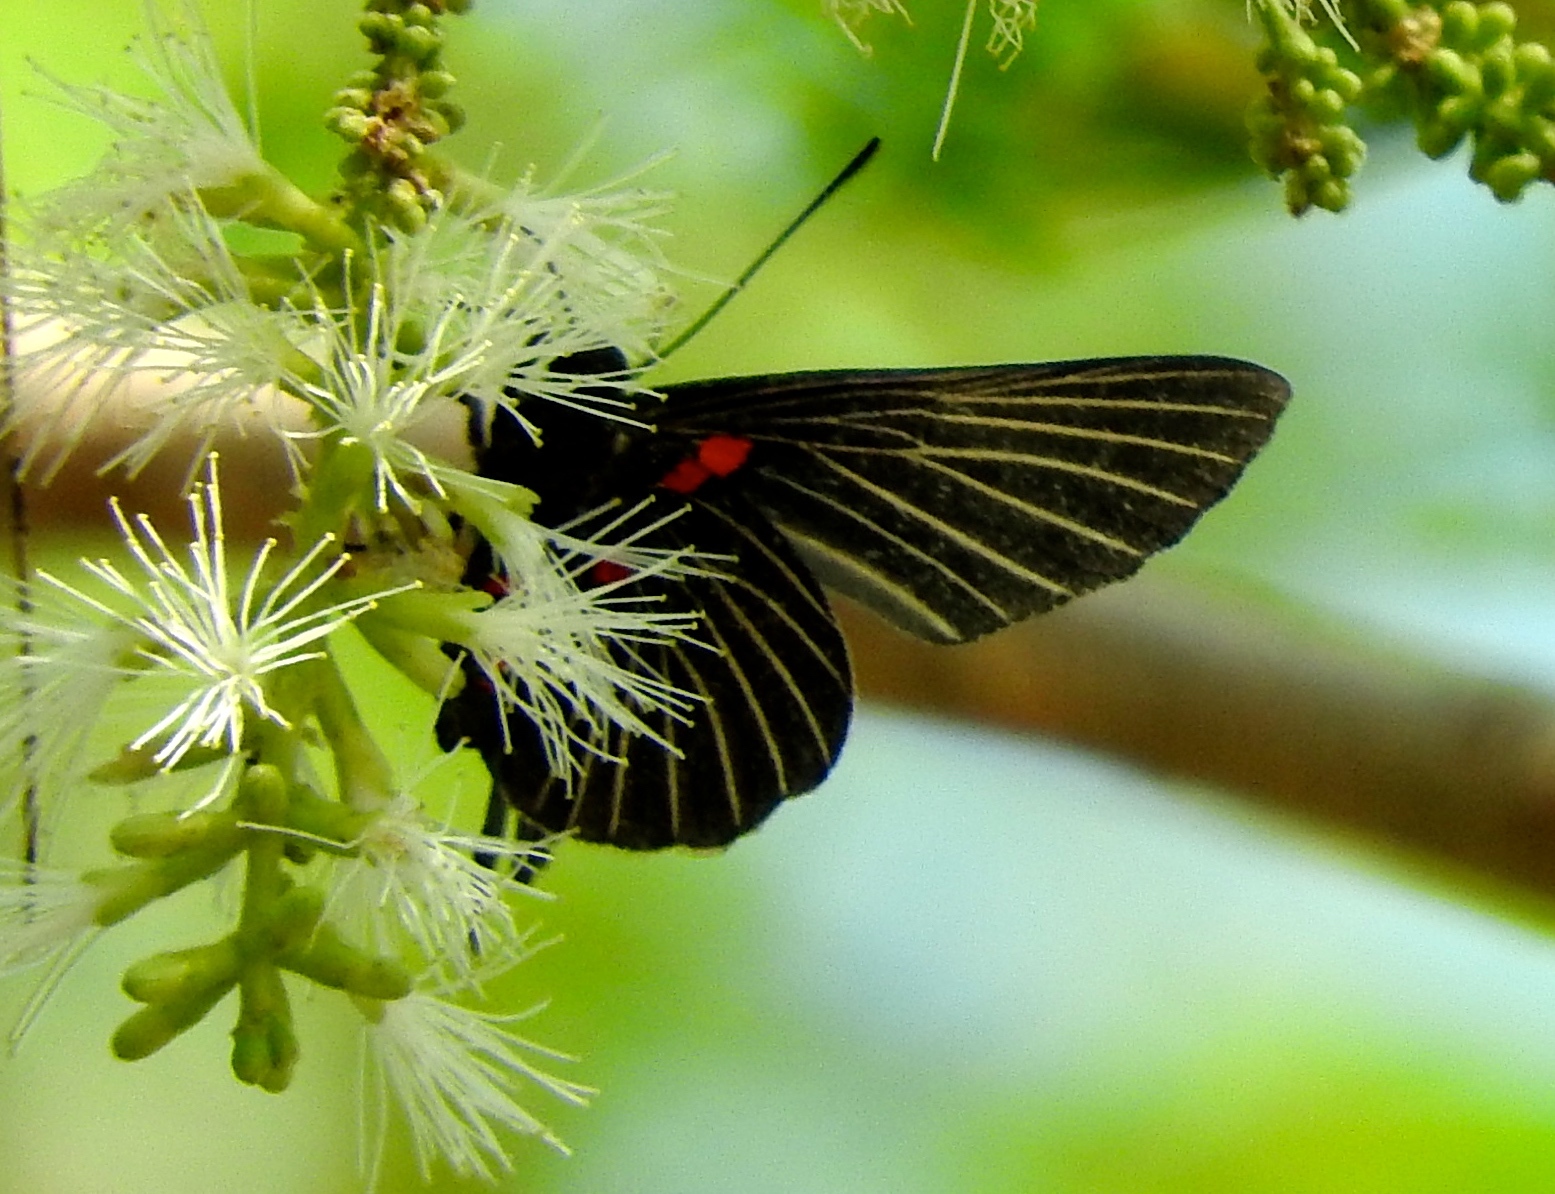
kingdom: Animalia
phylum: Arthropoda
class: Insecta
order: Lepidoptera
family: Lycaenidae
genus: Melanis
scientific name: Melanis
